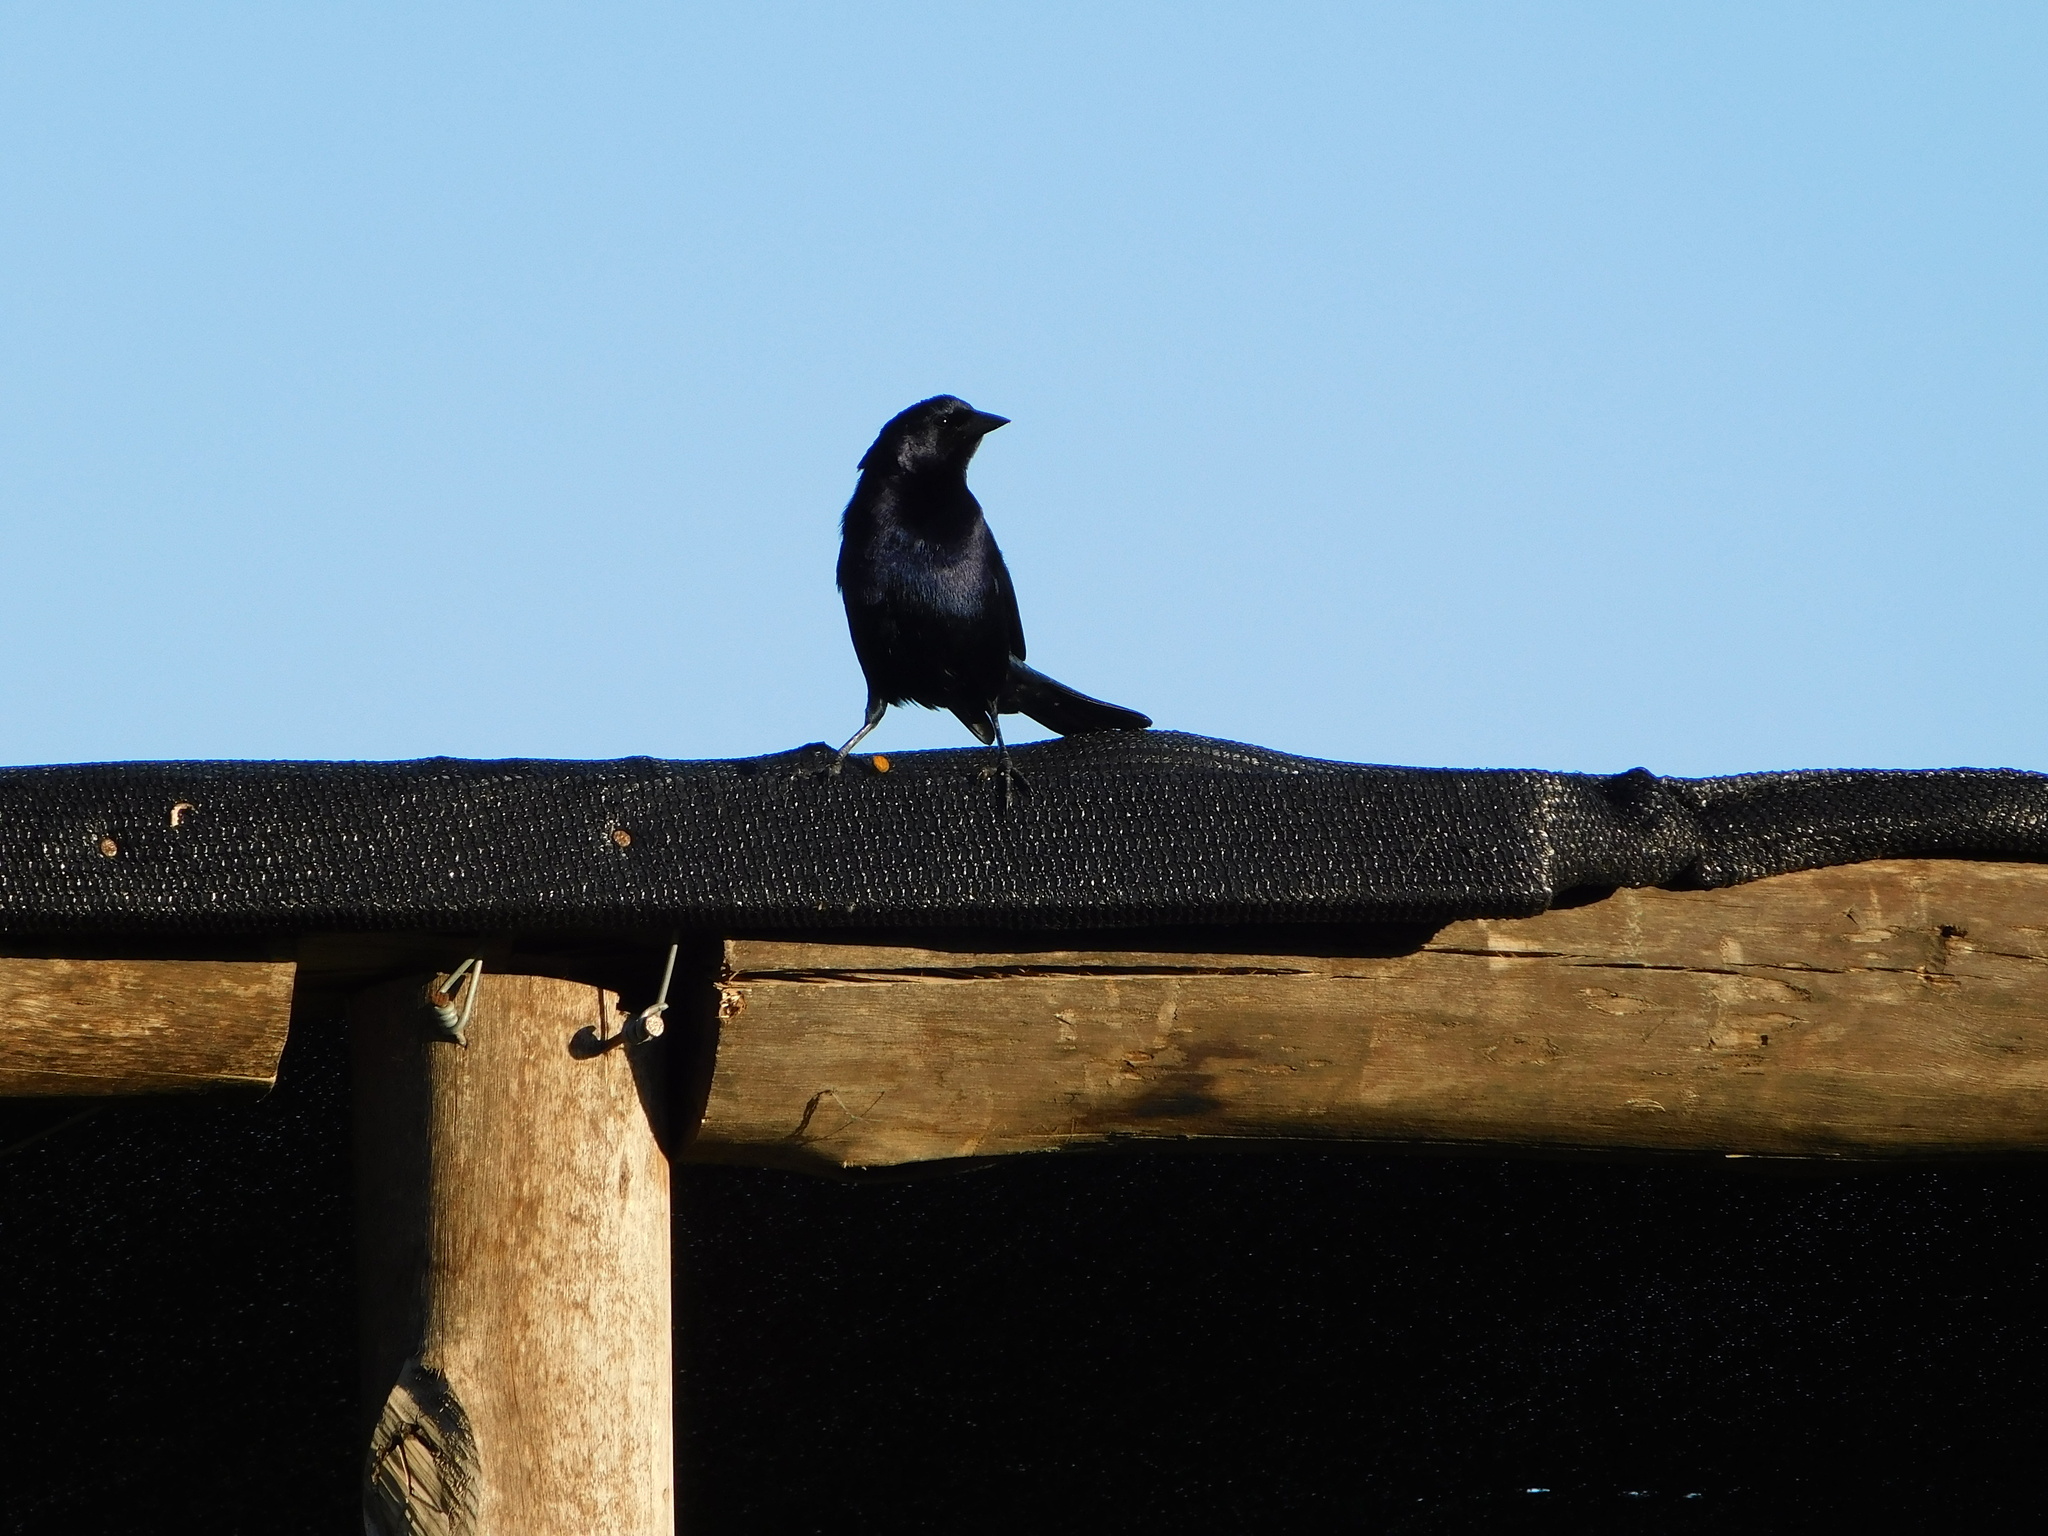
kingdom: Animalia
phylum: Chordata
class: Aves
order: Passeriformes
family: Icteridae
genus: Molothrus
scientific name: Molothrus bonariensis
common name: Shiny cowbird
